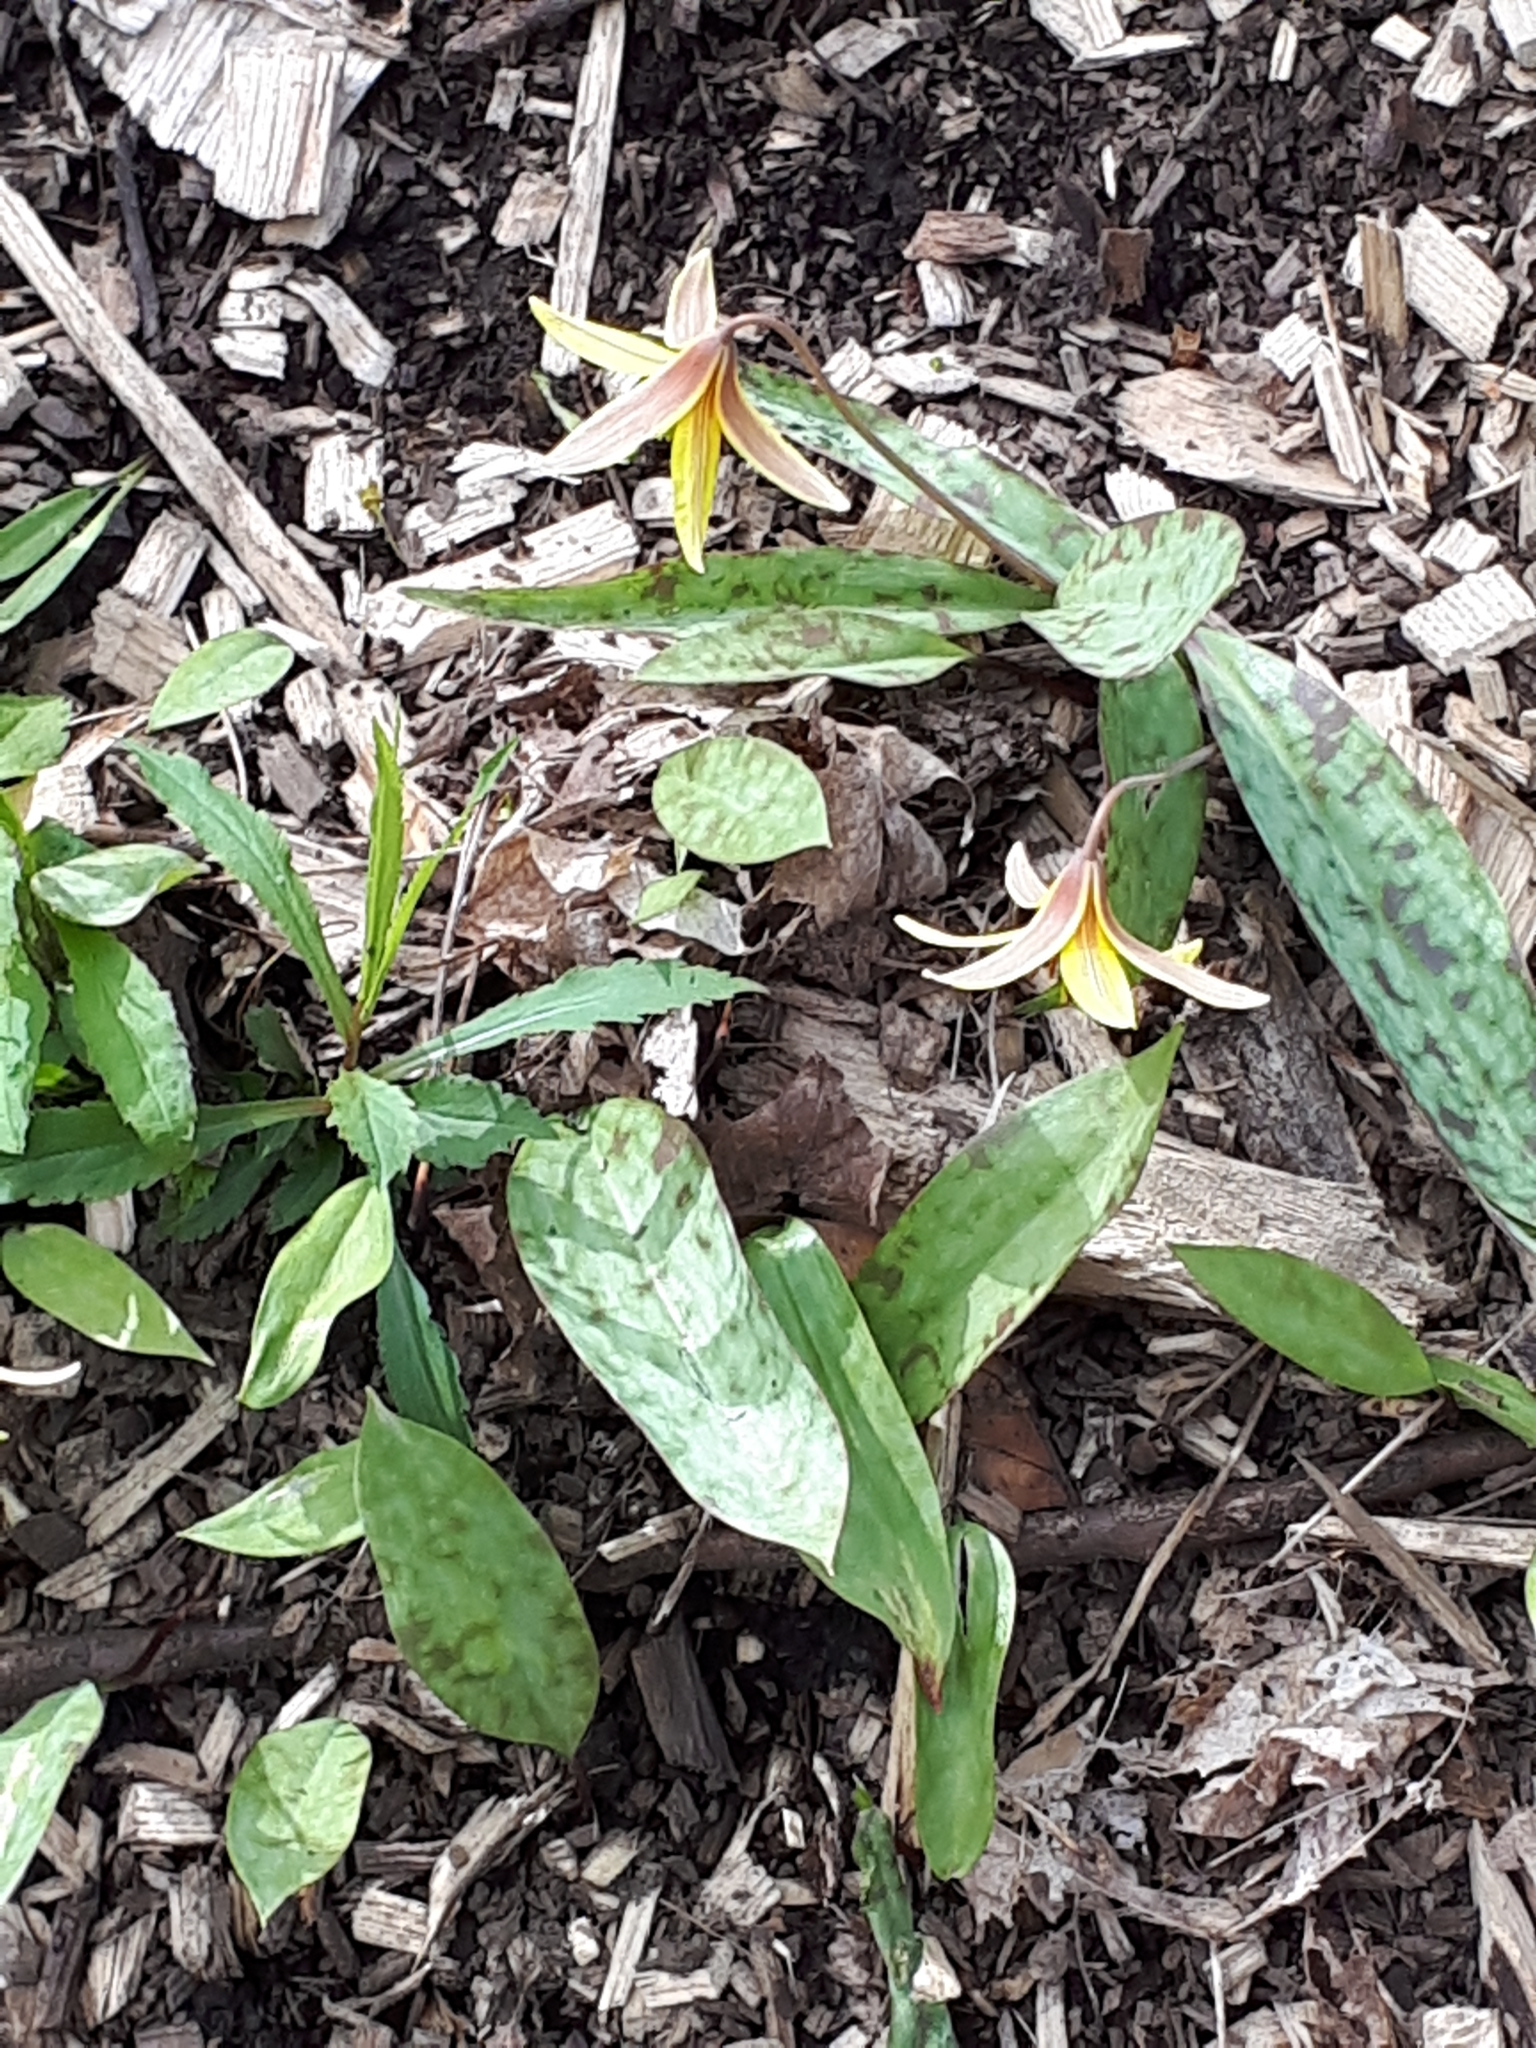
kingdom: Plantae
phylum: Tracheophyta
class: Liliopsida
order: Liliales
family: Liliaceae
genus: Erythronium
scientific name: Erythronium americanum
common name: Yellow adder's-tongue
